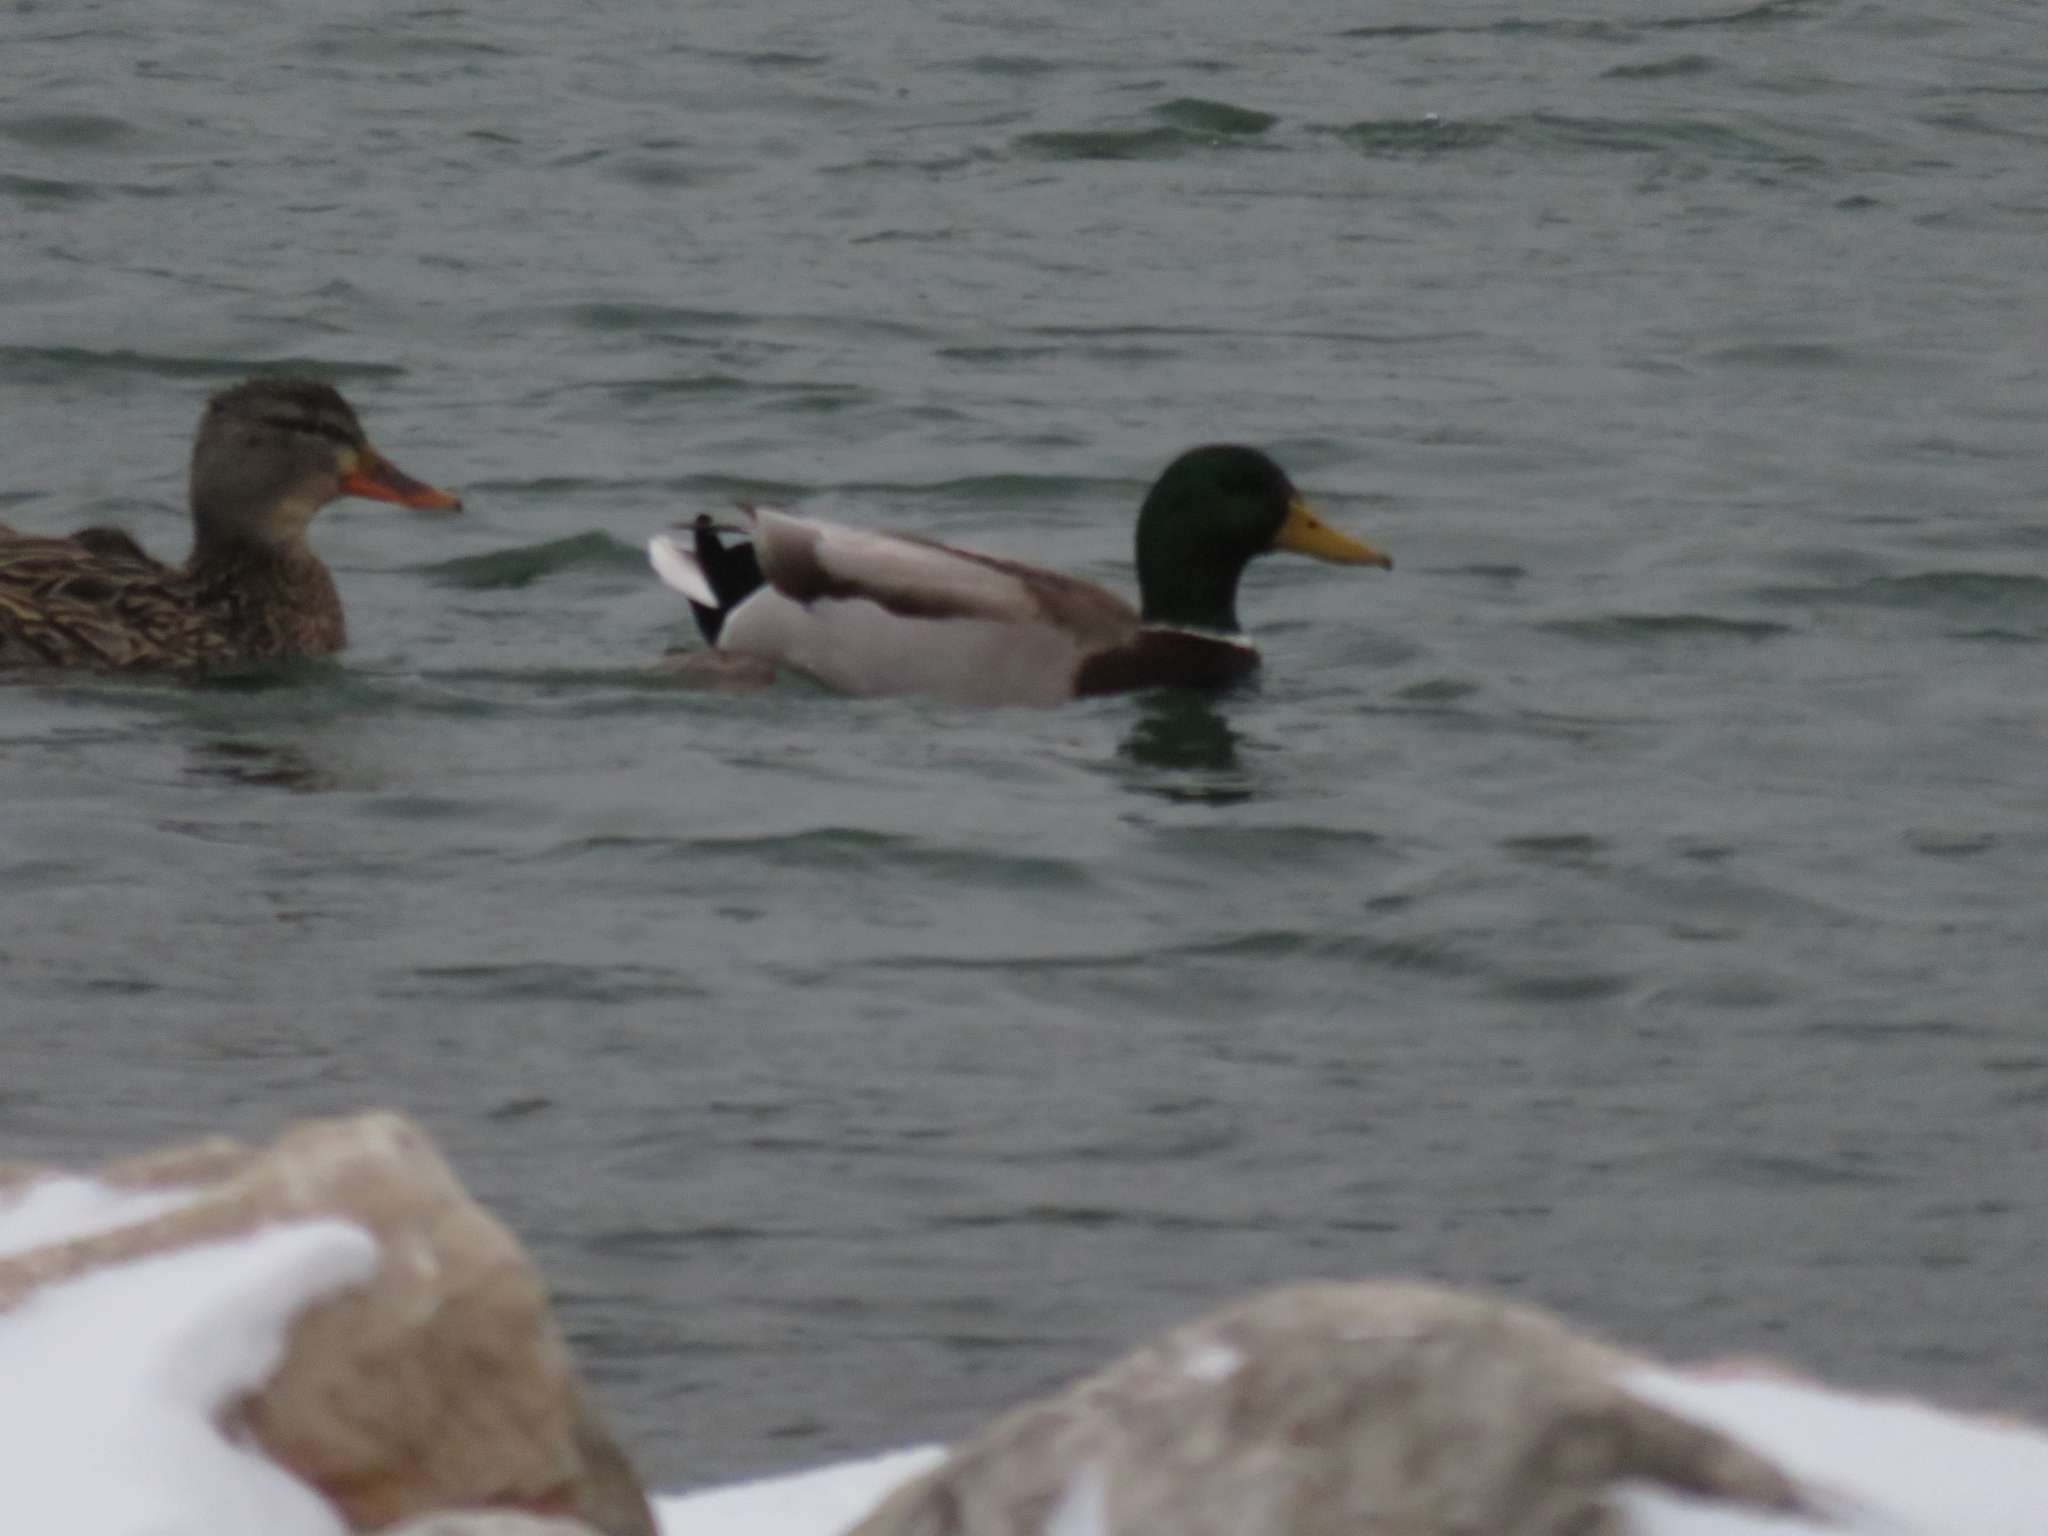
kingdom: Animalia
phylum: Chordata
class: Aves
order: Anseriformes
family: Anatidae
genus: Anas
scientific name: Anas platyrhynchos
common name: Mallard
